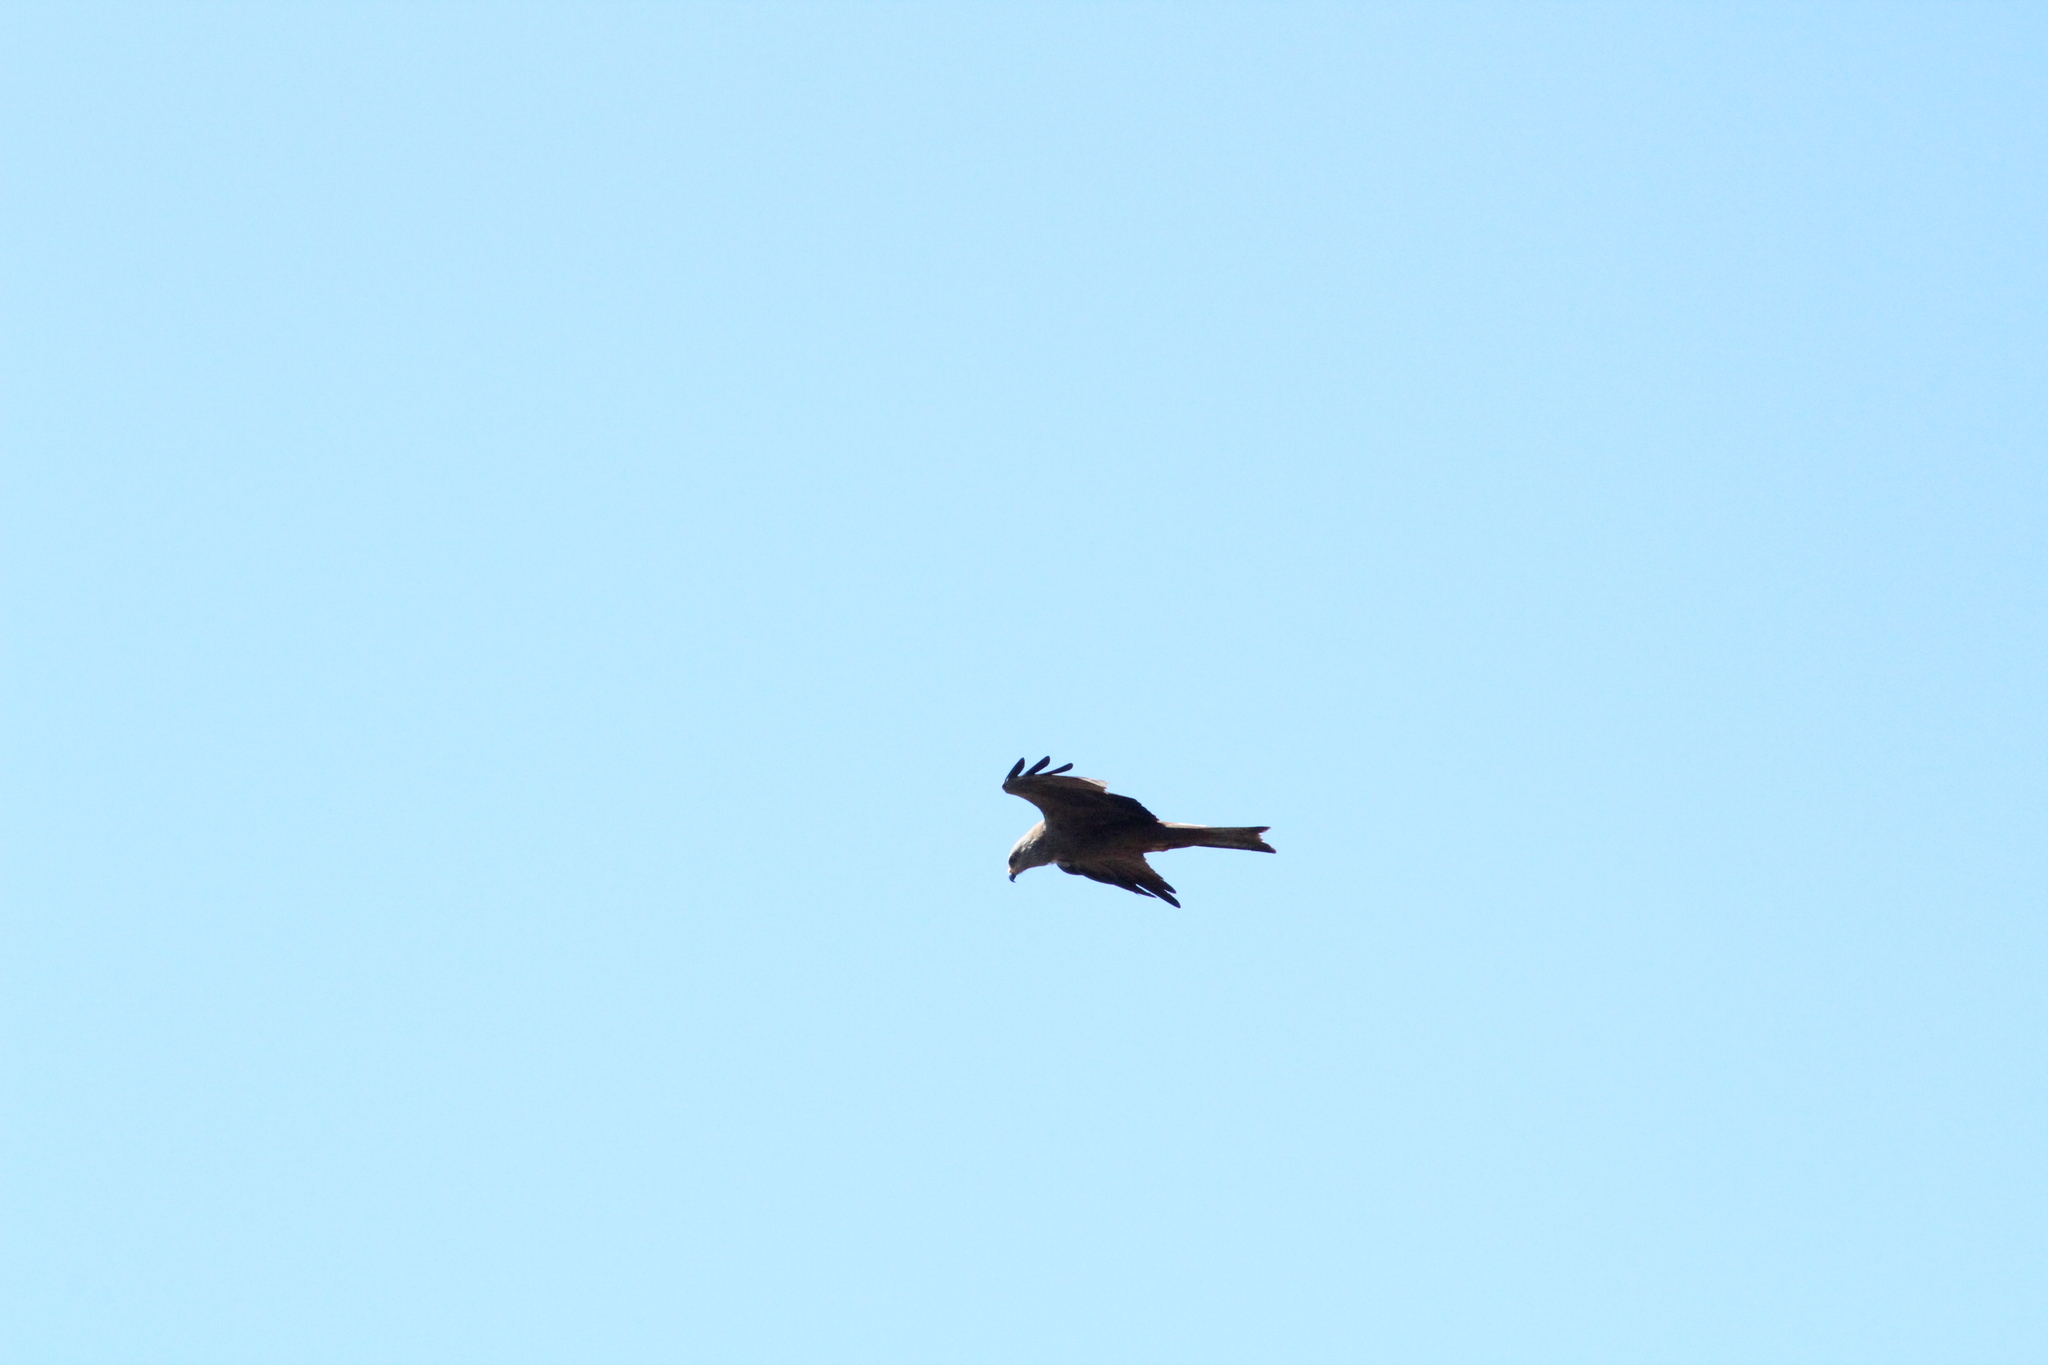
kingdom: Animalia
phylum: Chordata
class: Aves
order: Accipitriformes
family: Accipitridae
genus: Milvus
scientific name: Milvus milvus
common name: Red kite
